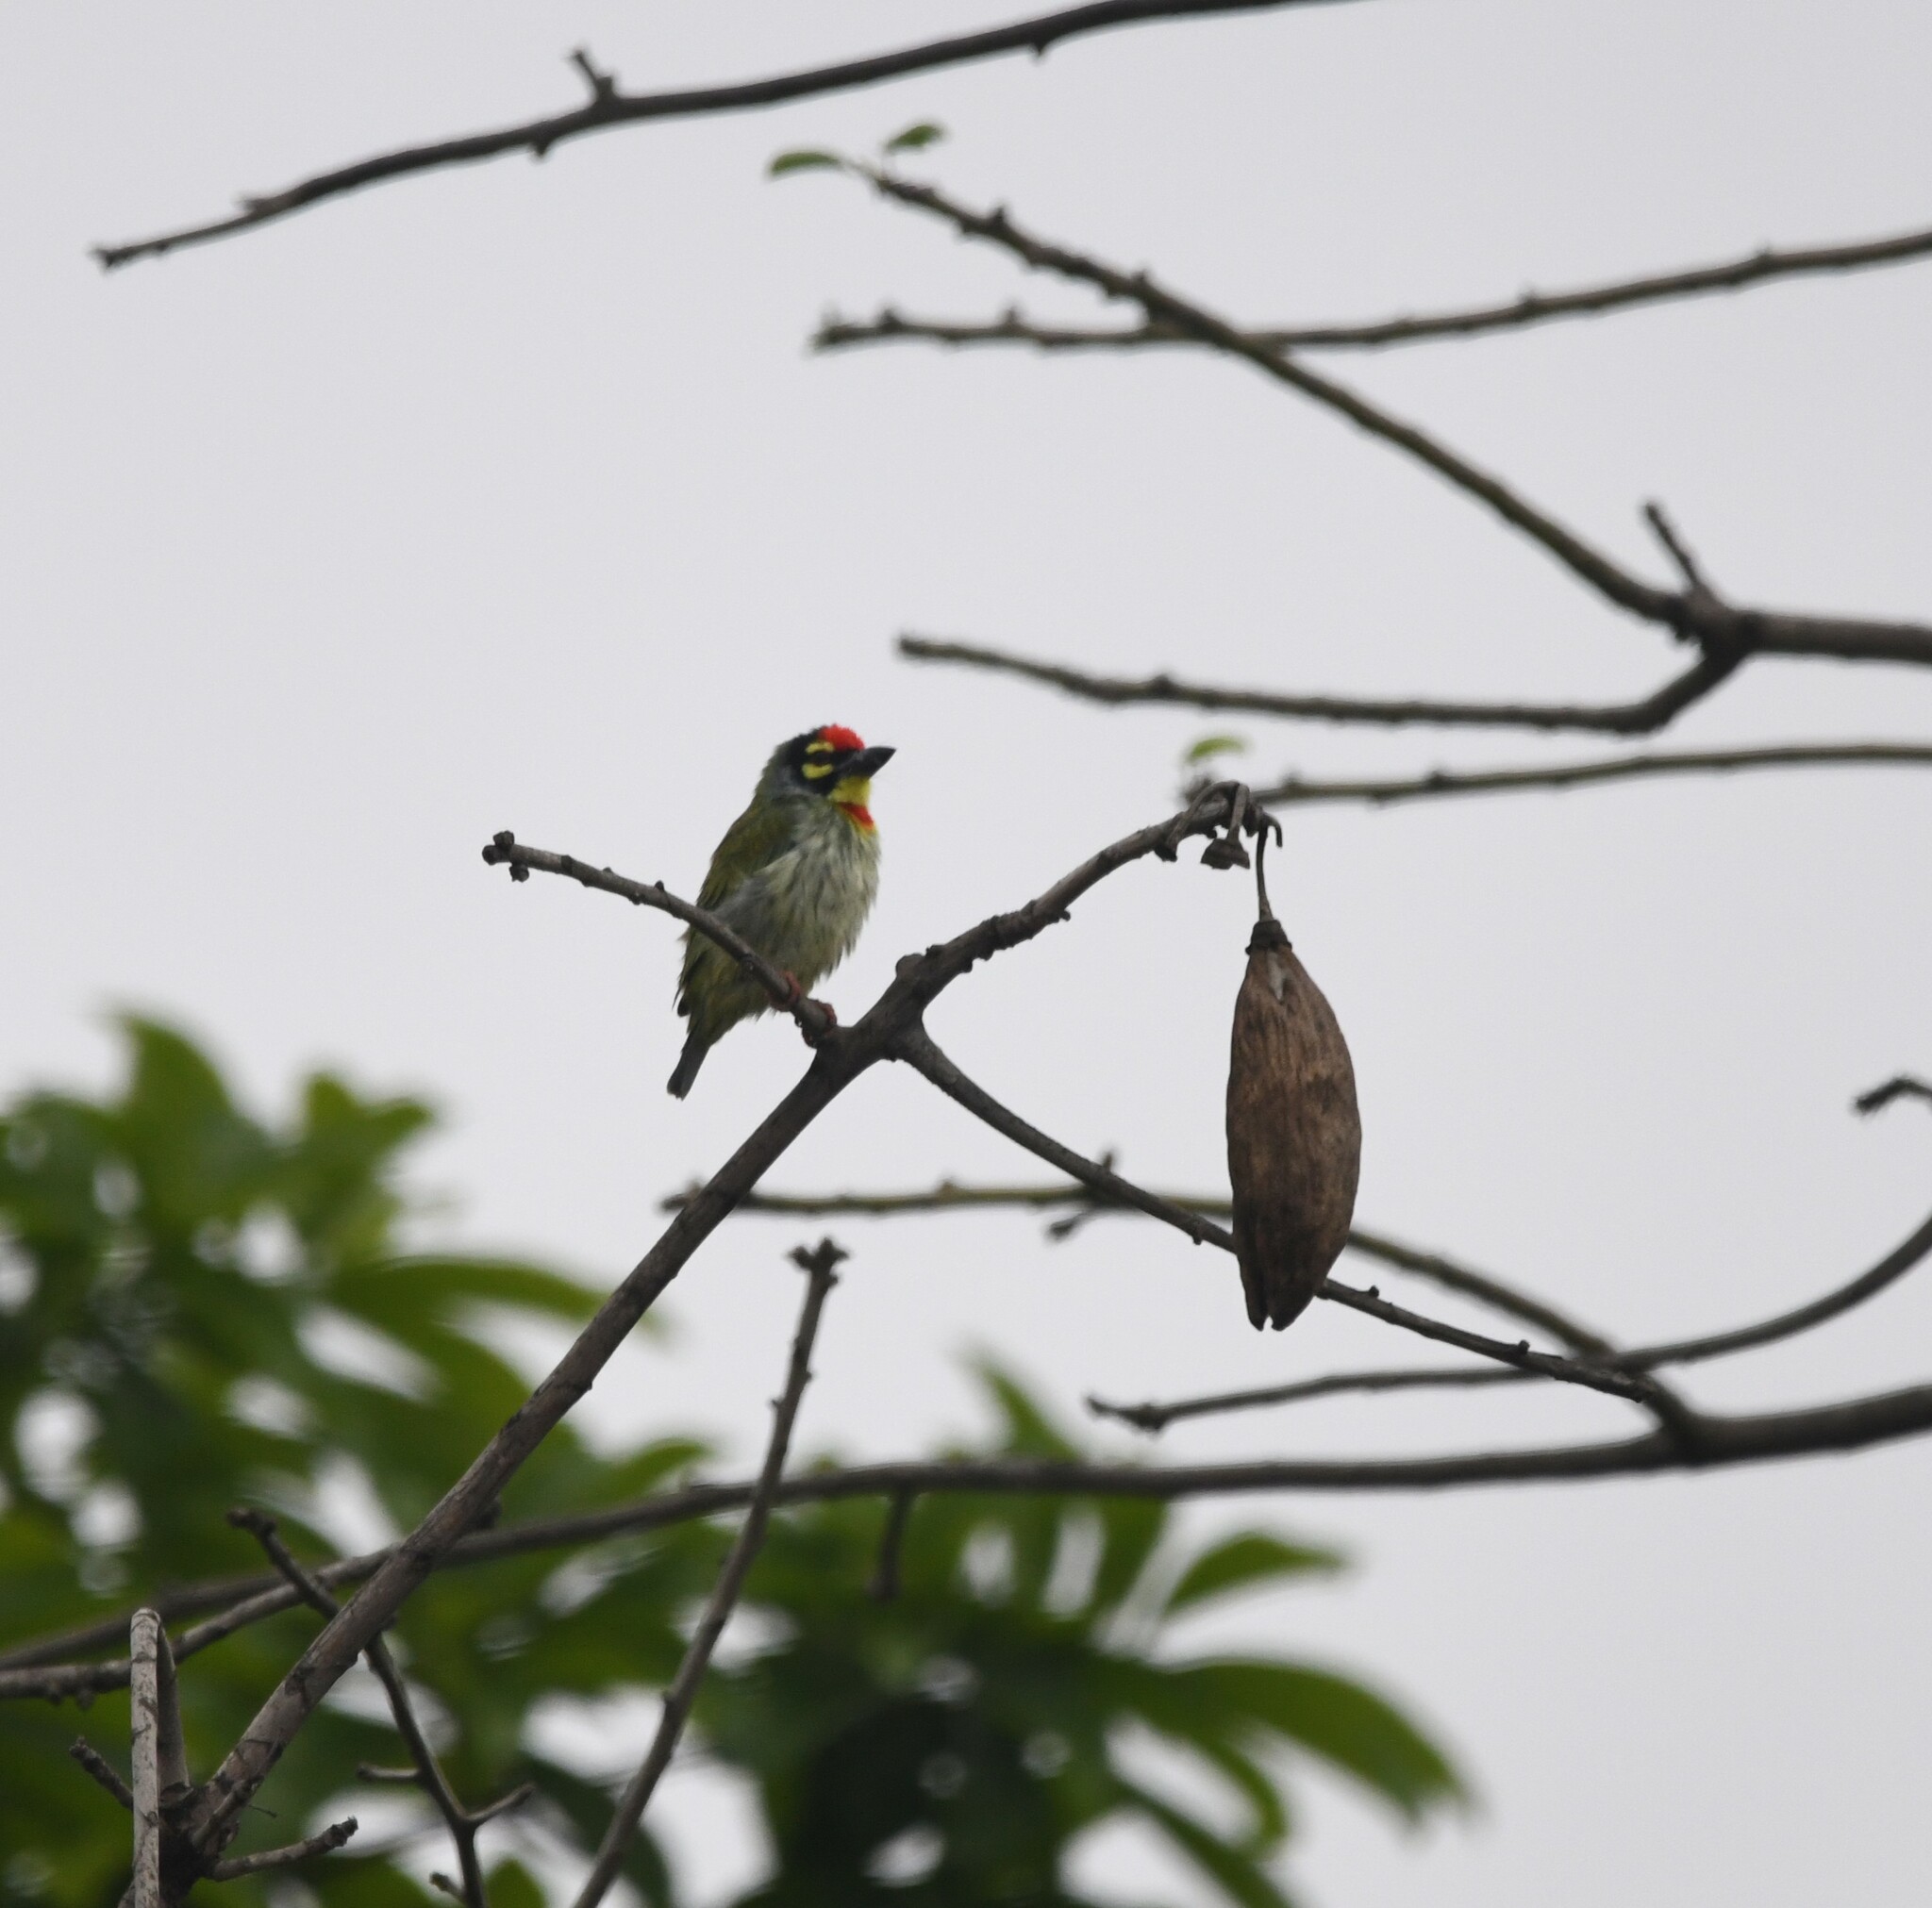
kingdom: Animalia
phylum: Chordata
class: Aves
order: Piciformes
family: Megalaimidae
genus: Psilopogon
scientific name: Psilopogon haemacephalus
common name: Coppersmith barbet
